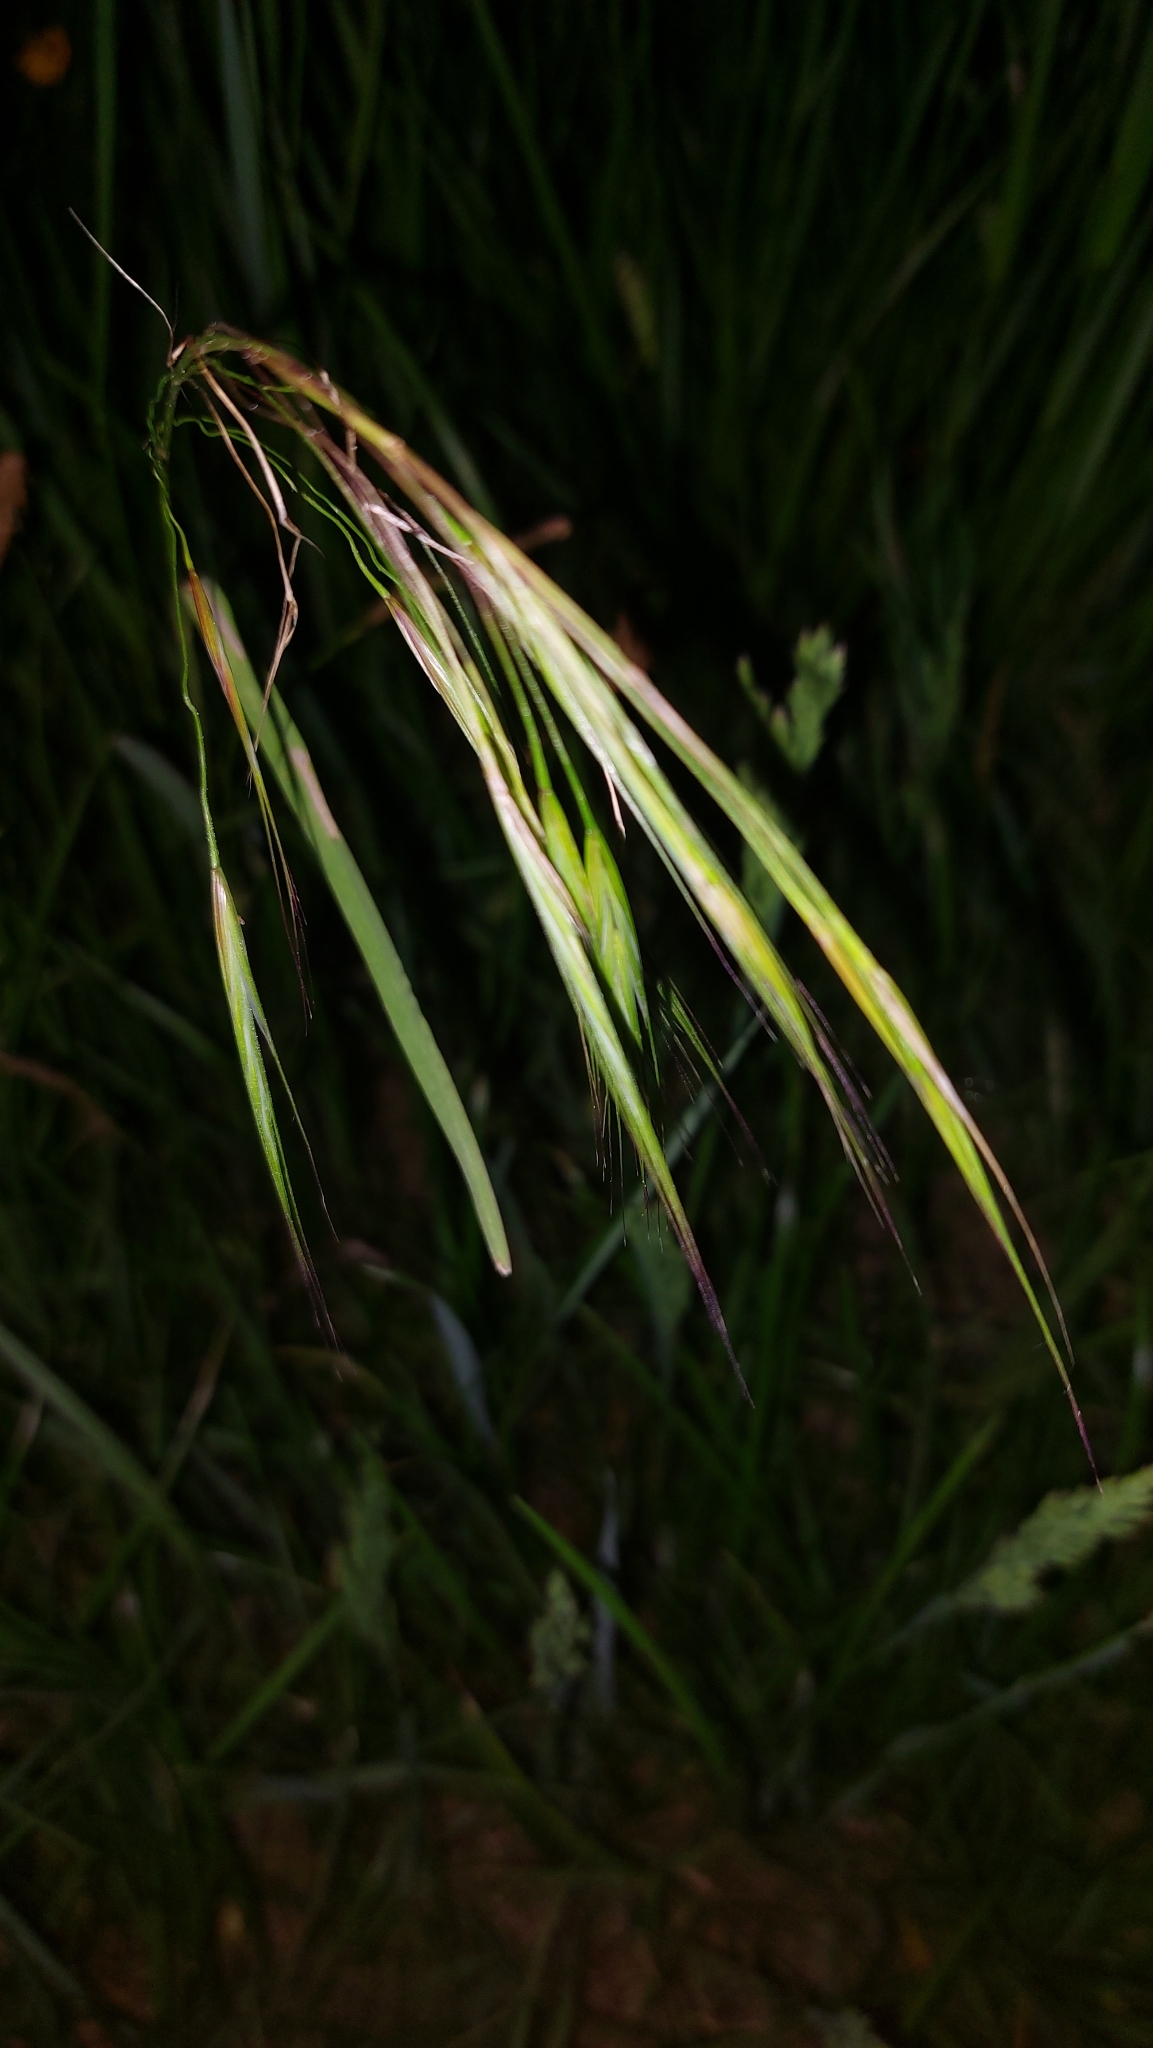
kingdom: Plantae
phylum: Tracheophyta
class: Liliopsida
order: Poales
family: Poaceae
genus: Bromus
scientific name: Bromus sterilis
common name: Poverty brome
